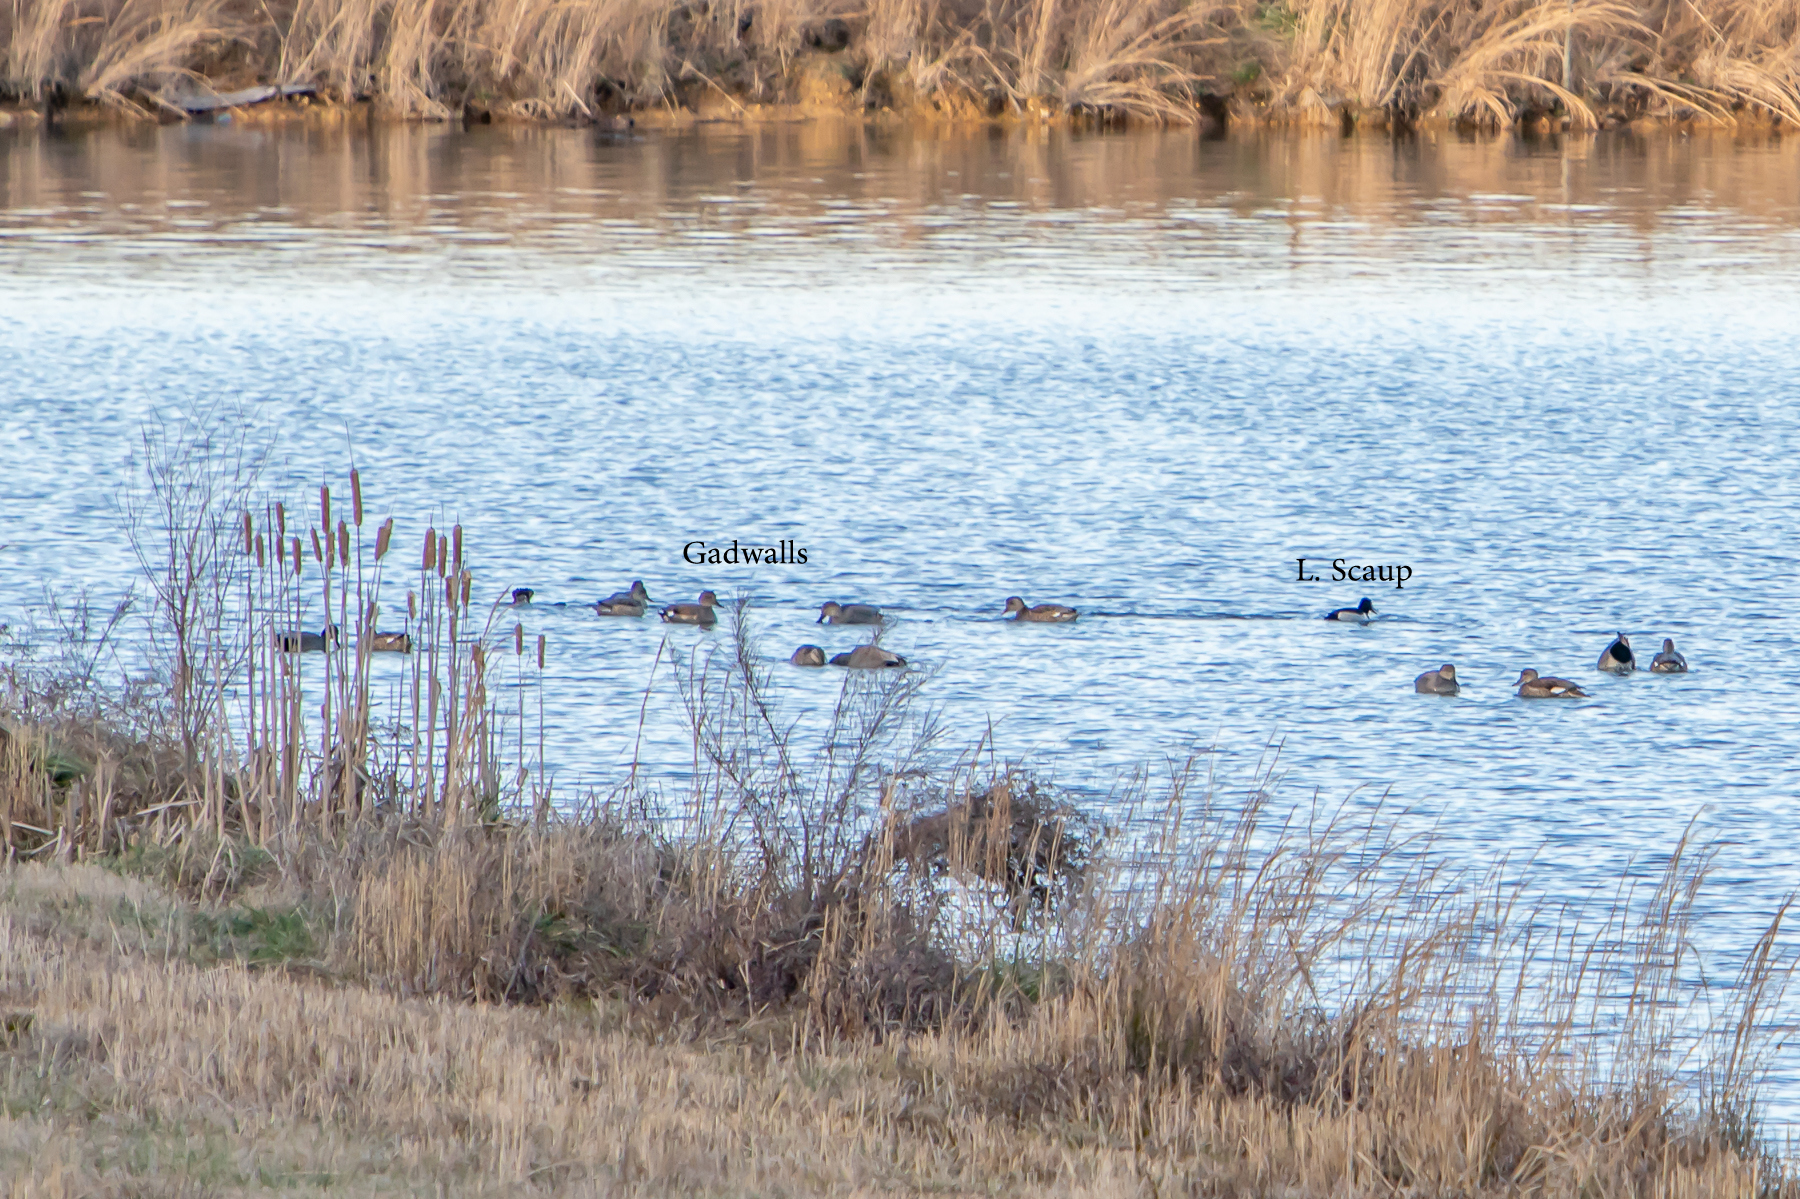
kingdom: Animalia
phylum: Chordata
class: Aves
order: Anseriformes
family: Anatidae
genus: Aythya
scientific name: Aythya affinis
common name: Lesser scaup
